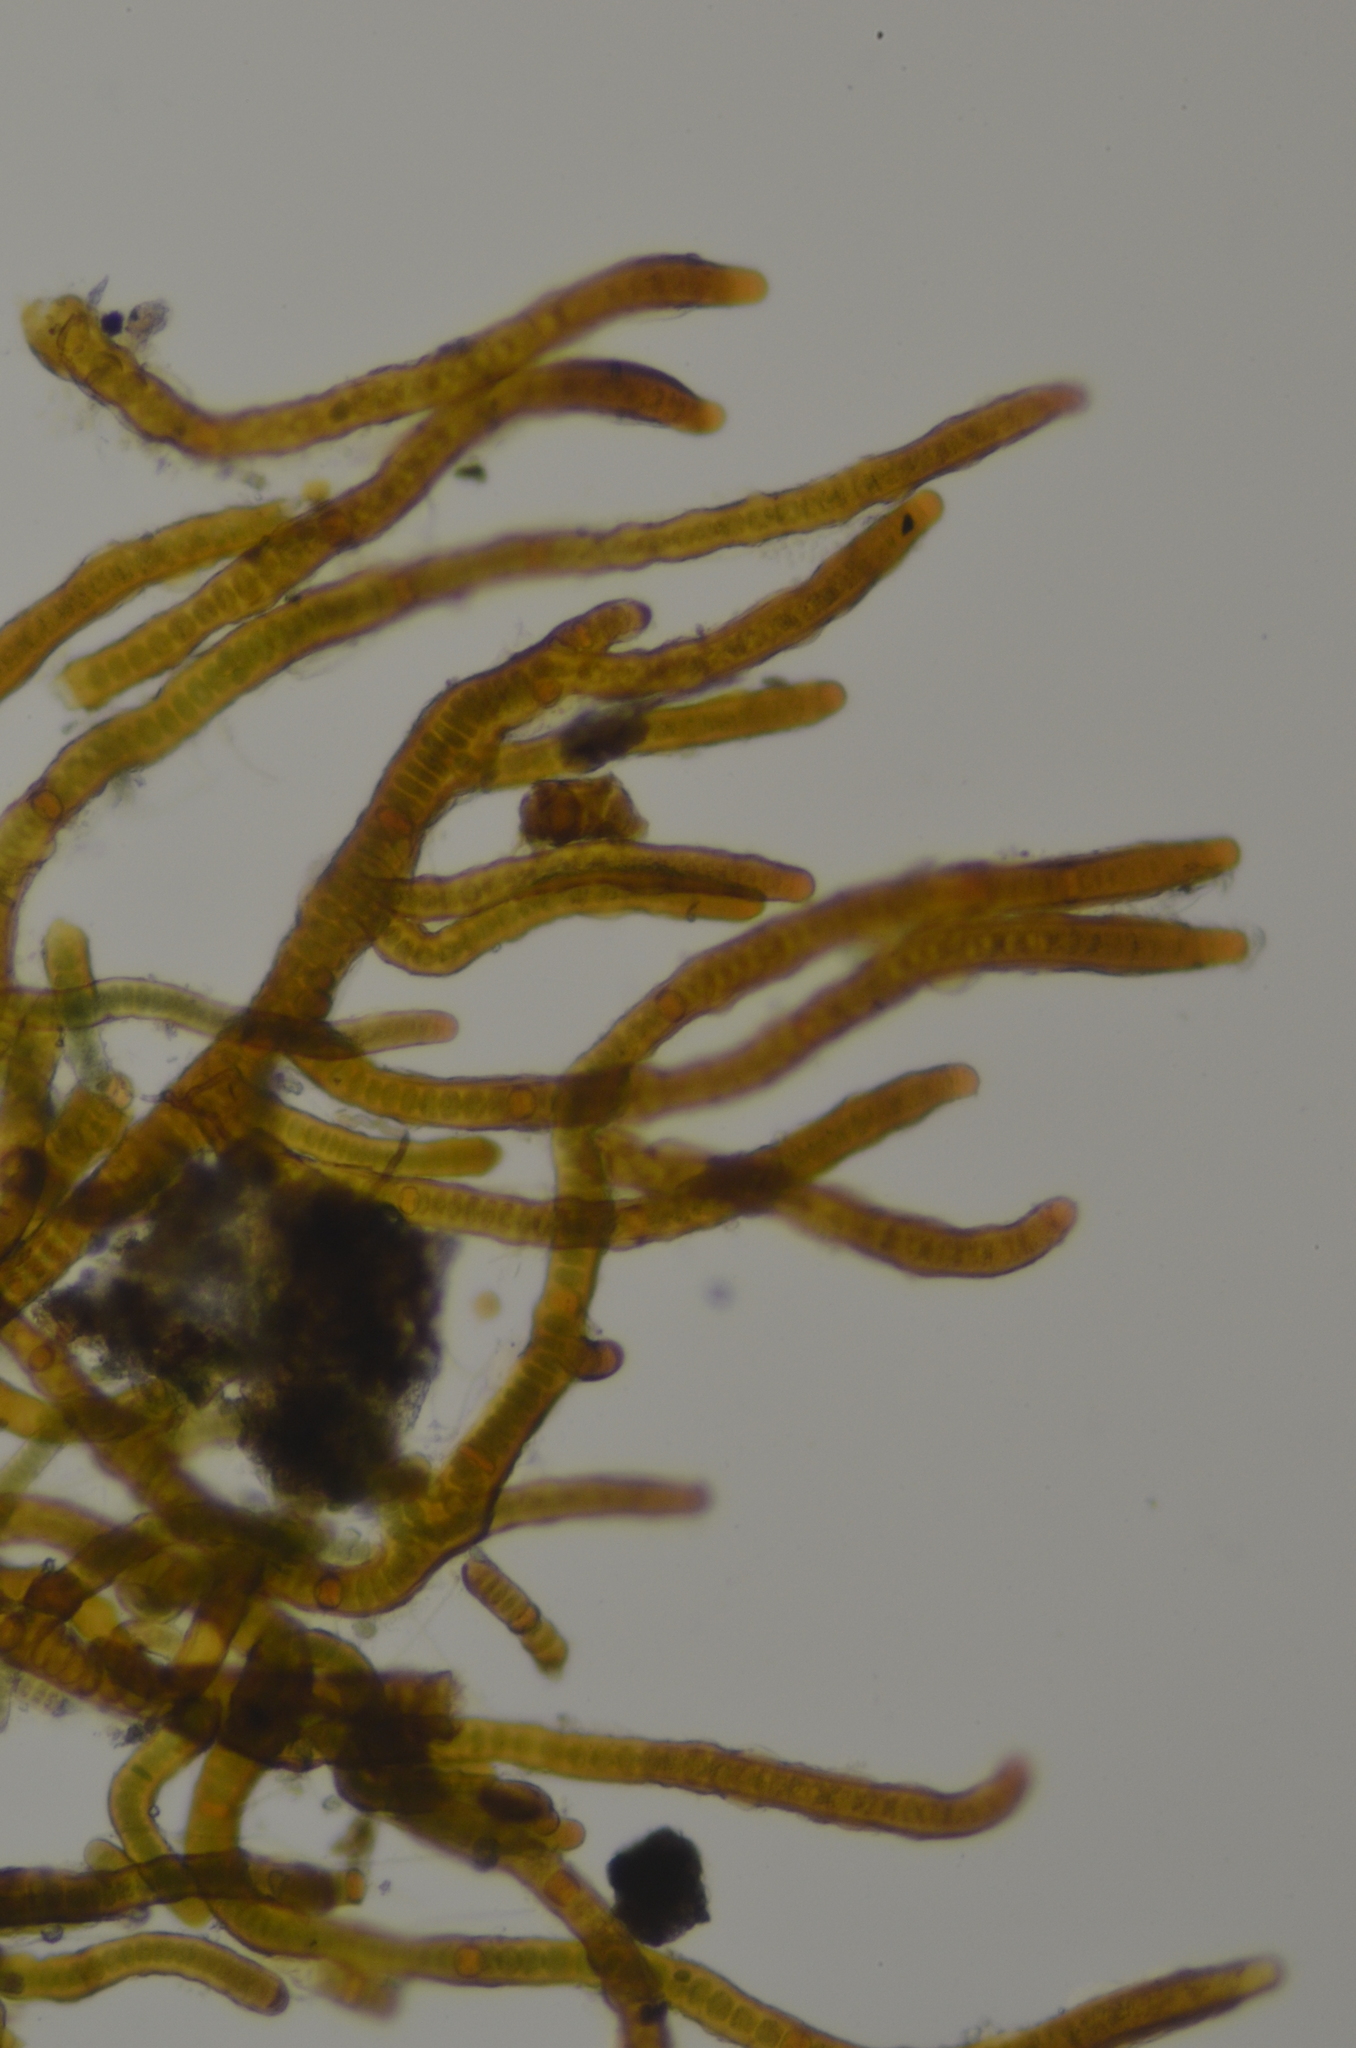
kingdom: Bacteria
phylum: Cyanobacteria
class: Cyanobacteriia
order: Cyanobacteriales
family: Nostocaceae
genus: Stigonema
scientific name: Stigonema tomentosum
